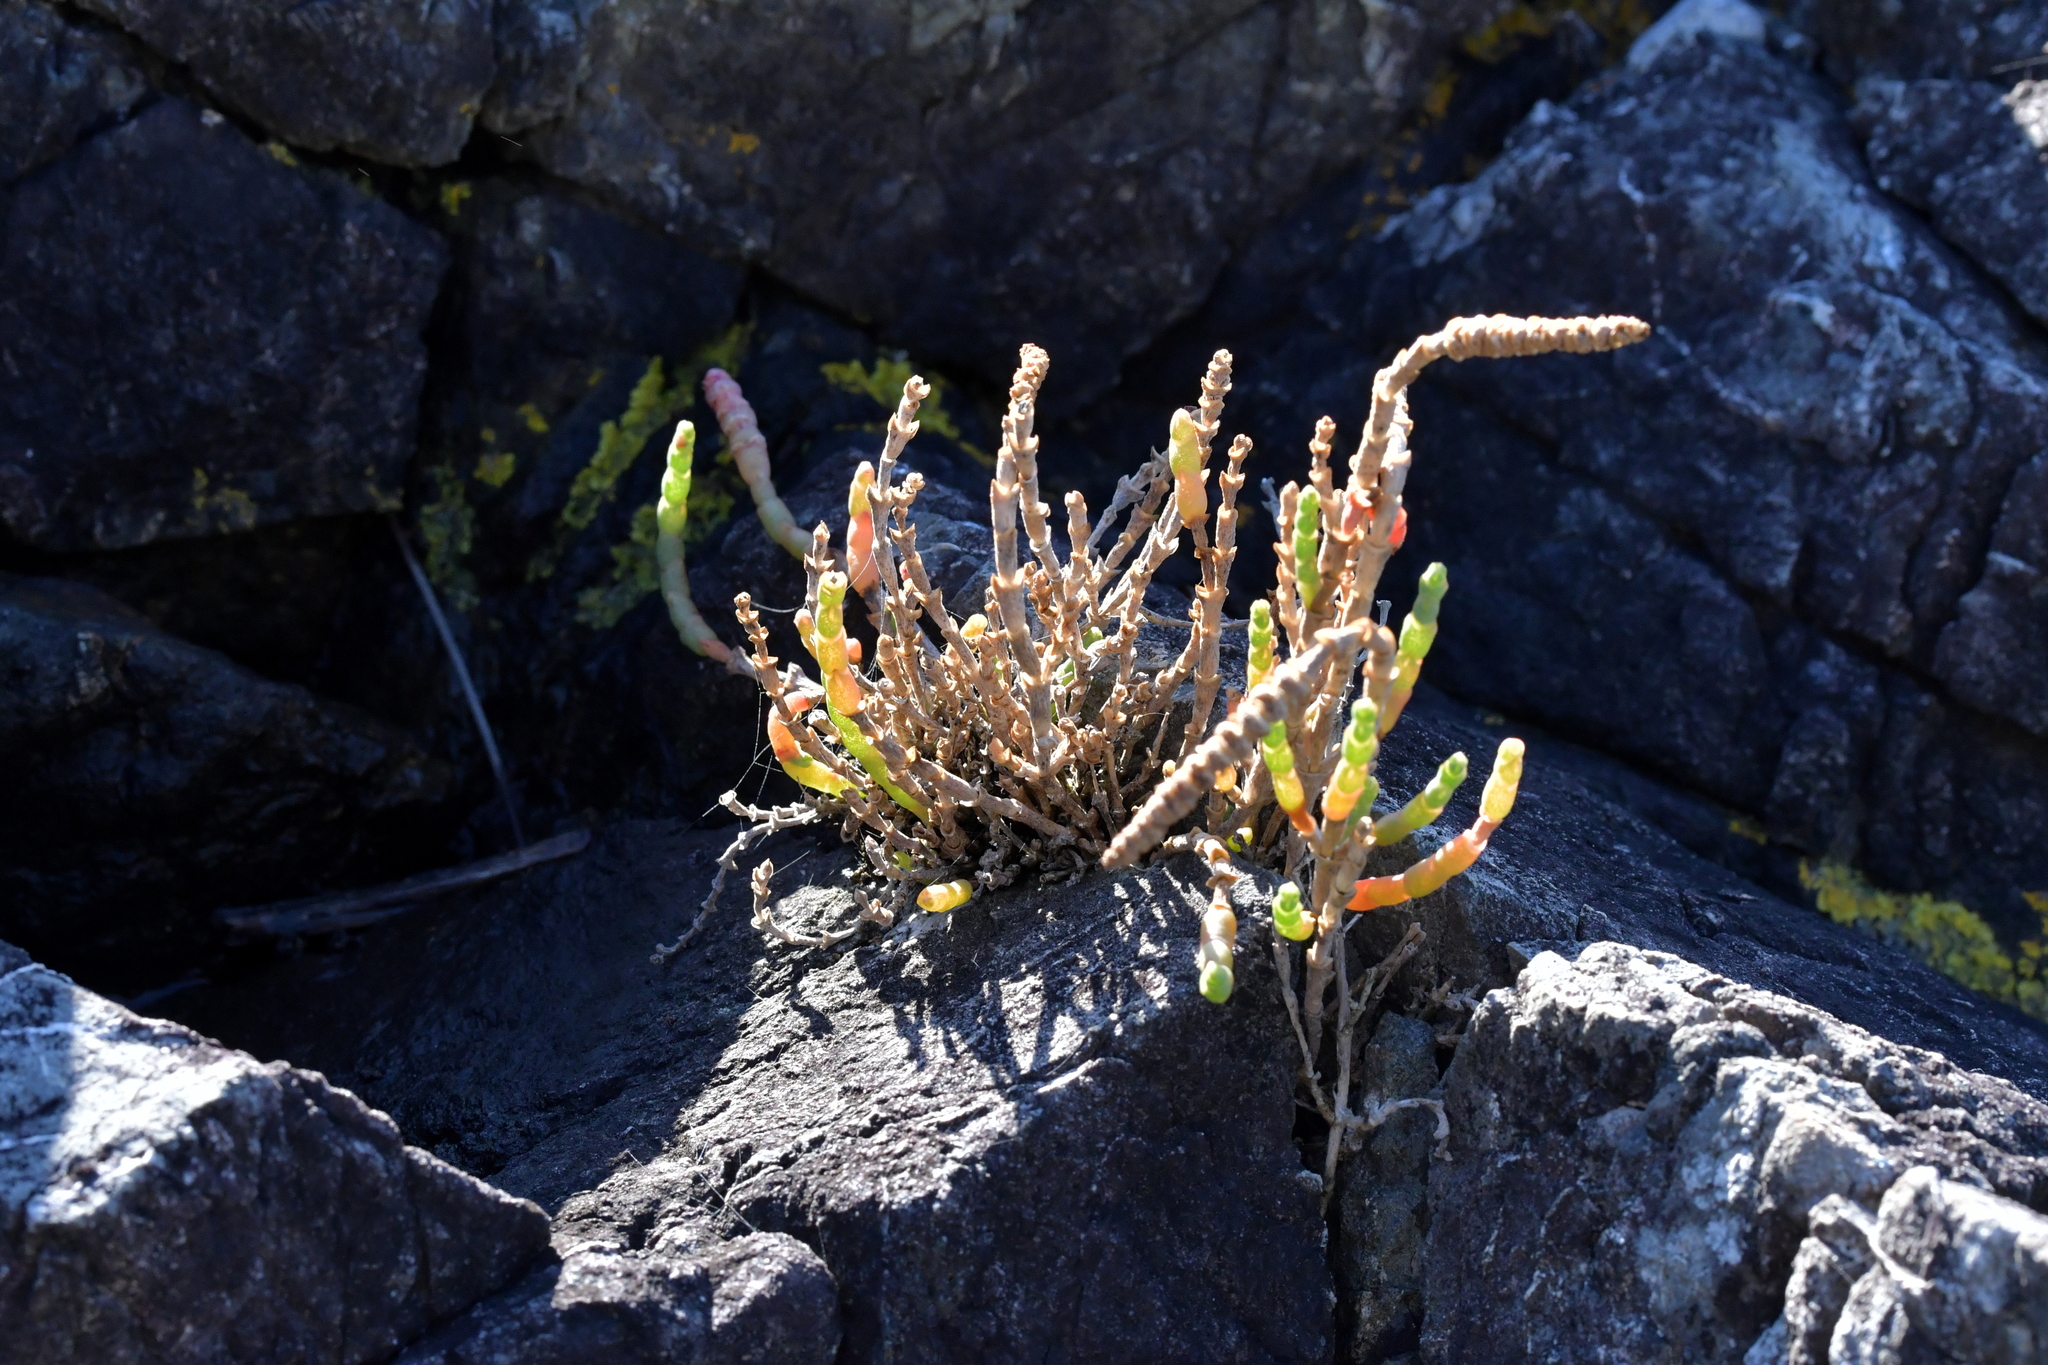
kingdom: Plantae
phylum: Tracheophyta
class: Magnoliopsida
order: Caryophyllales
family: Amaranthaceae
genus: Salicornia
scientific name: Salicornia quinqueflora
